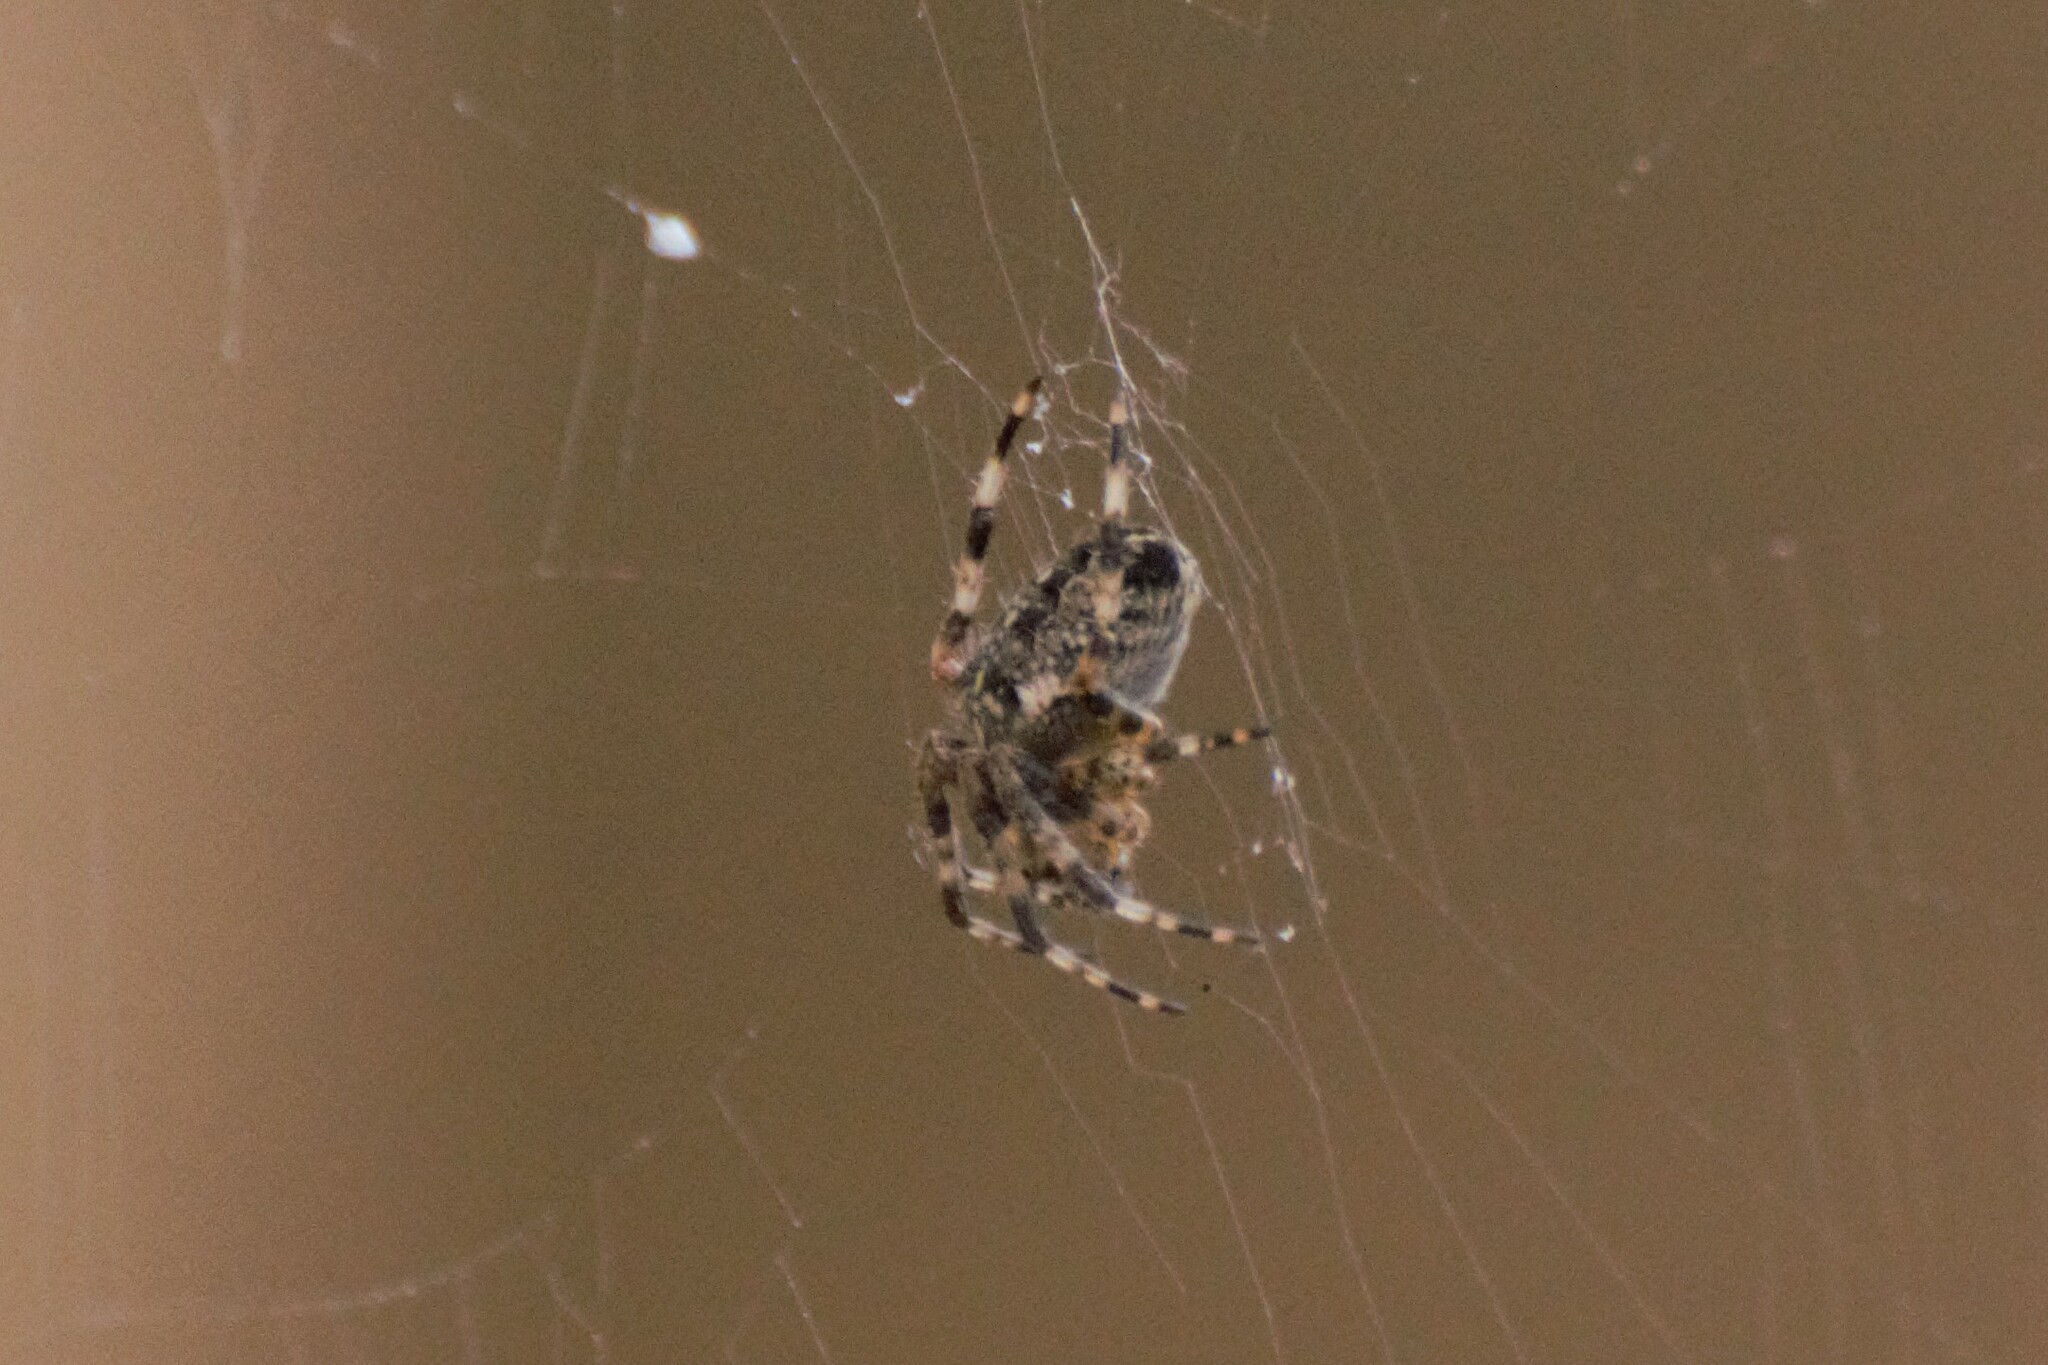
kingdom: Animalia
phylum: Arthropoda
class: Arachnida
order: Araneae
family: Araneidae
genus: Araneus
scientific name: Araneus diadematus
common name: Cross orbweaver
